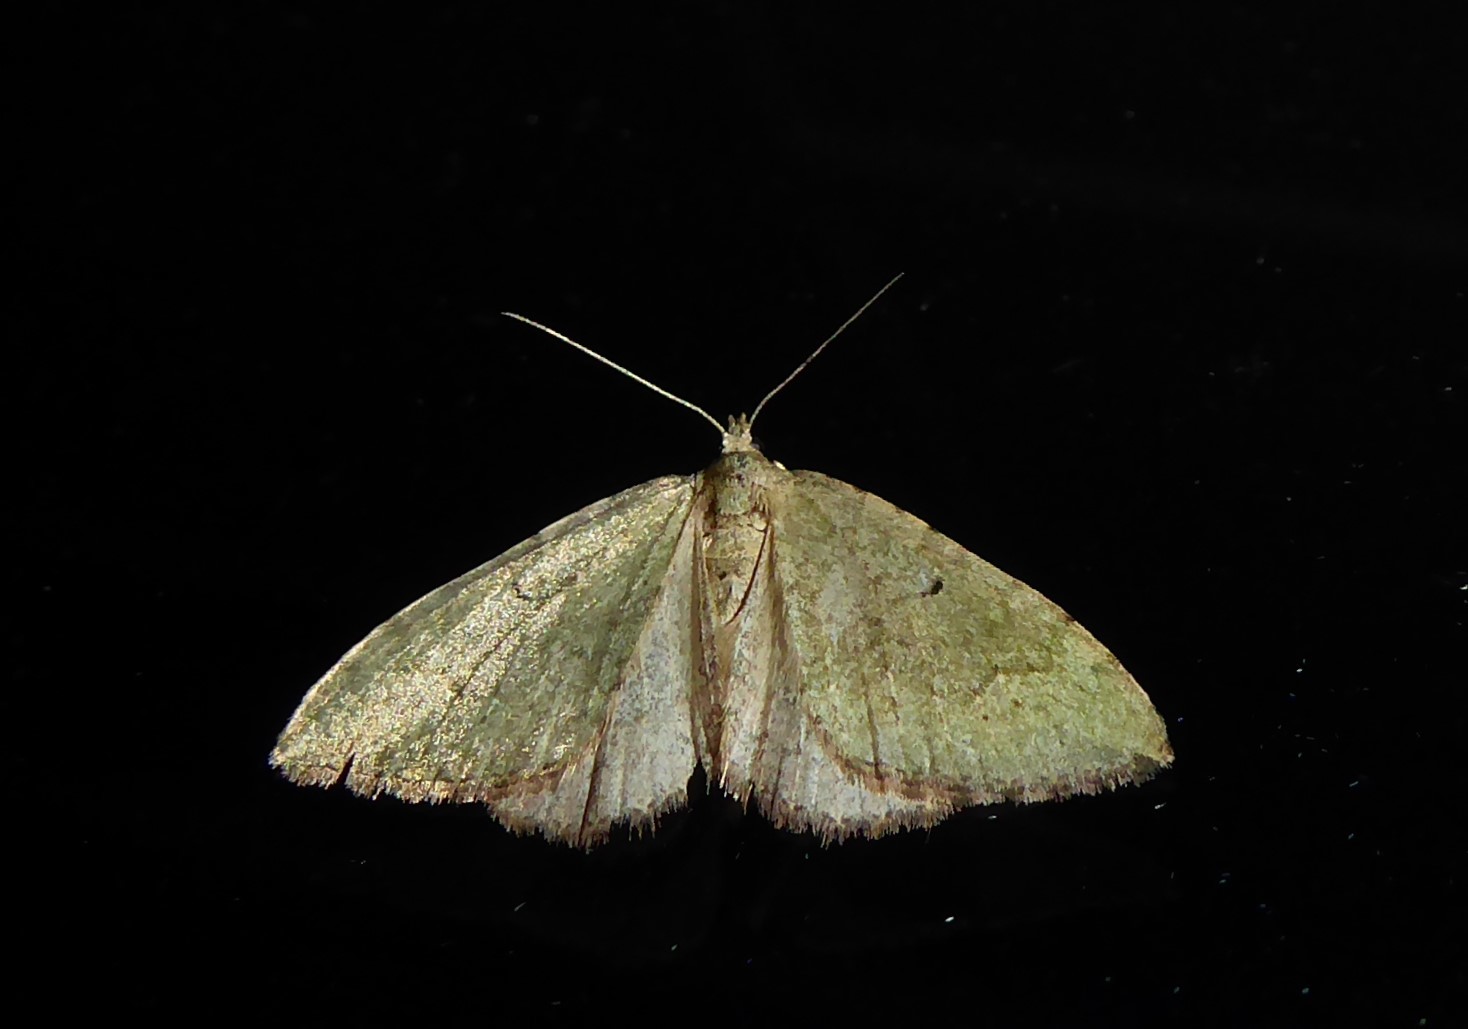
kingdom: Animalia
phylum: Arthropoda
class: Insecta
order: Lepidoptera
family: Geometridae
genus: Epyaxa
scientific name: Epyaxa rosearia
